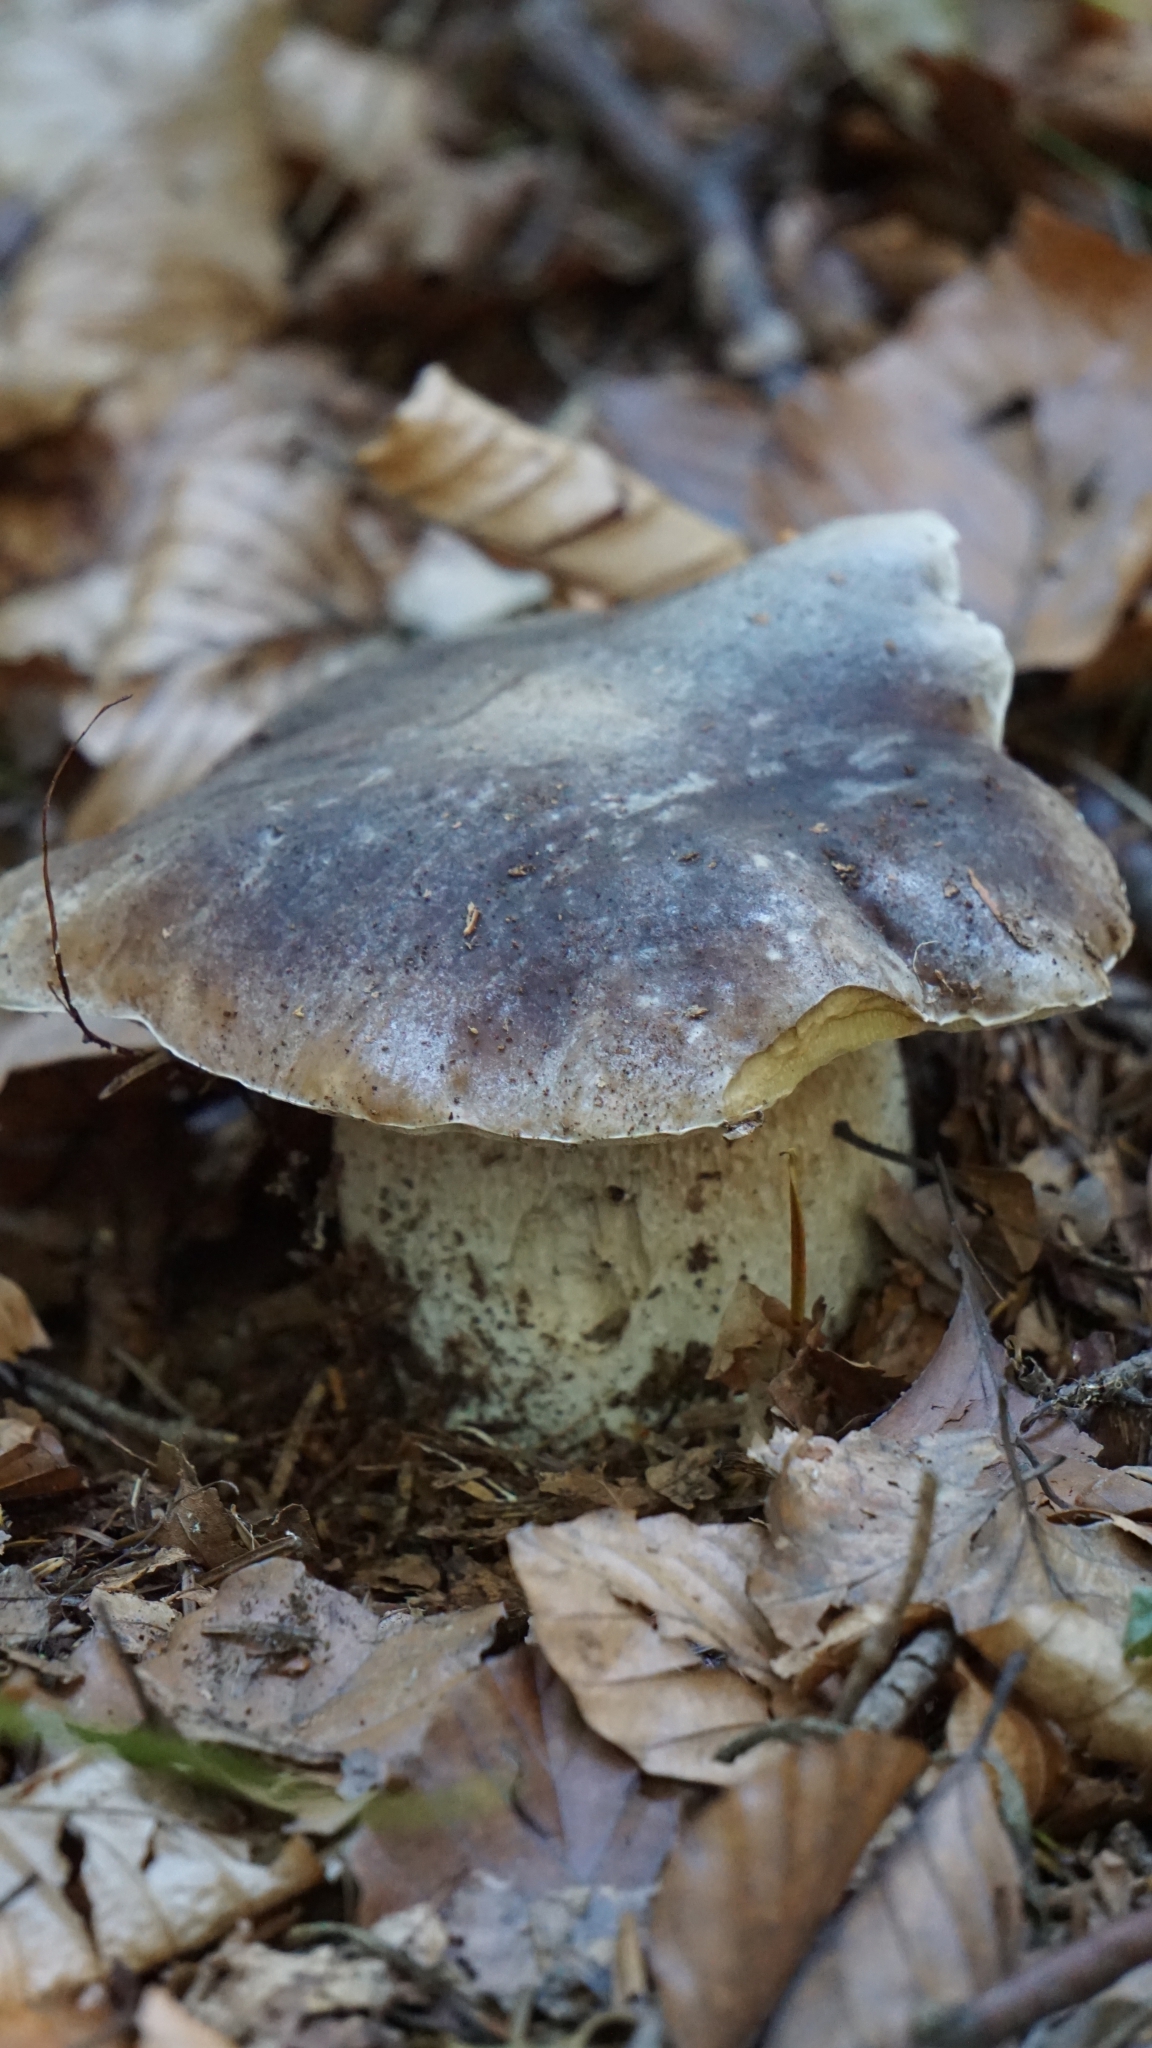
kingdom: Fungi
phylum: Basidiomycota
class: Agaricomycetes
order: Boletales
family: Boletaceae
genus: Boletus
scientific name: Boletus reticulatus
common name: Summer bolete
